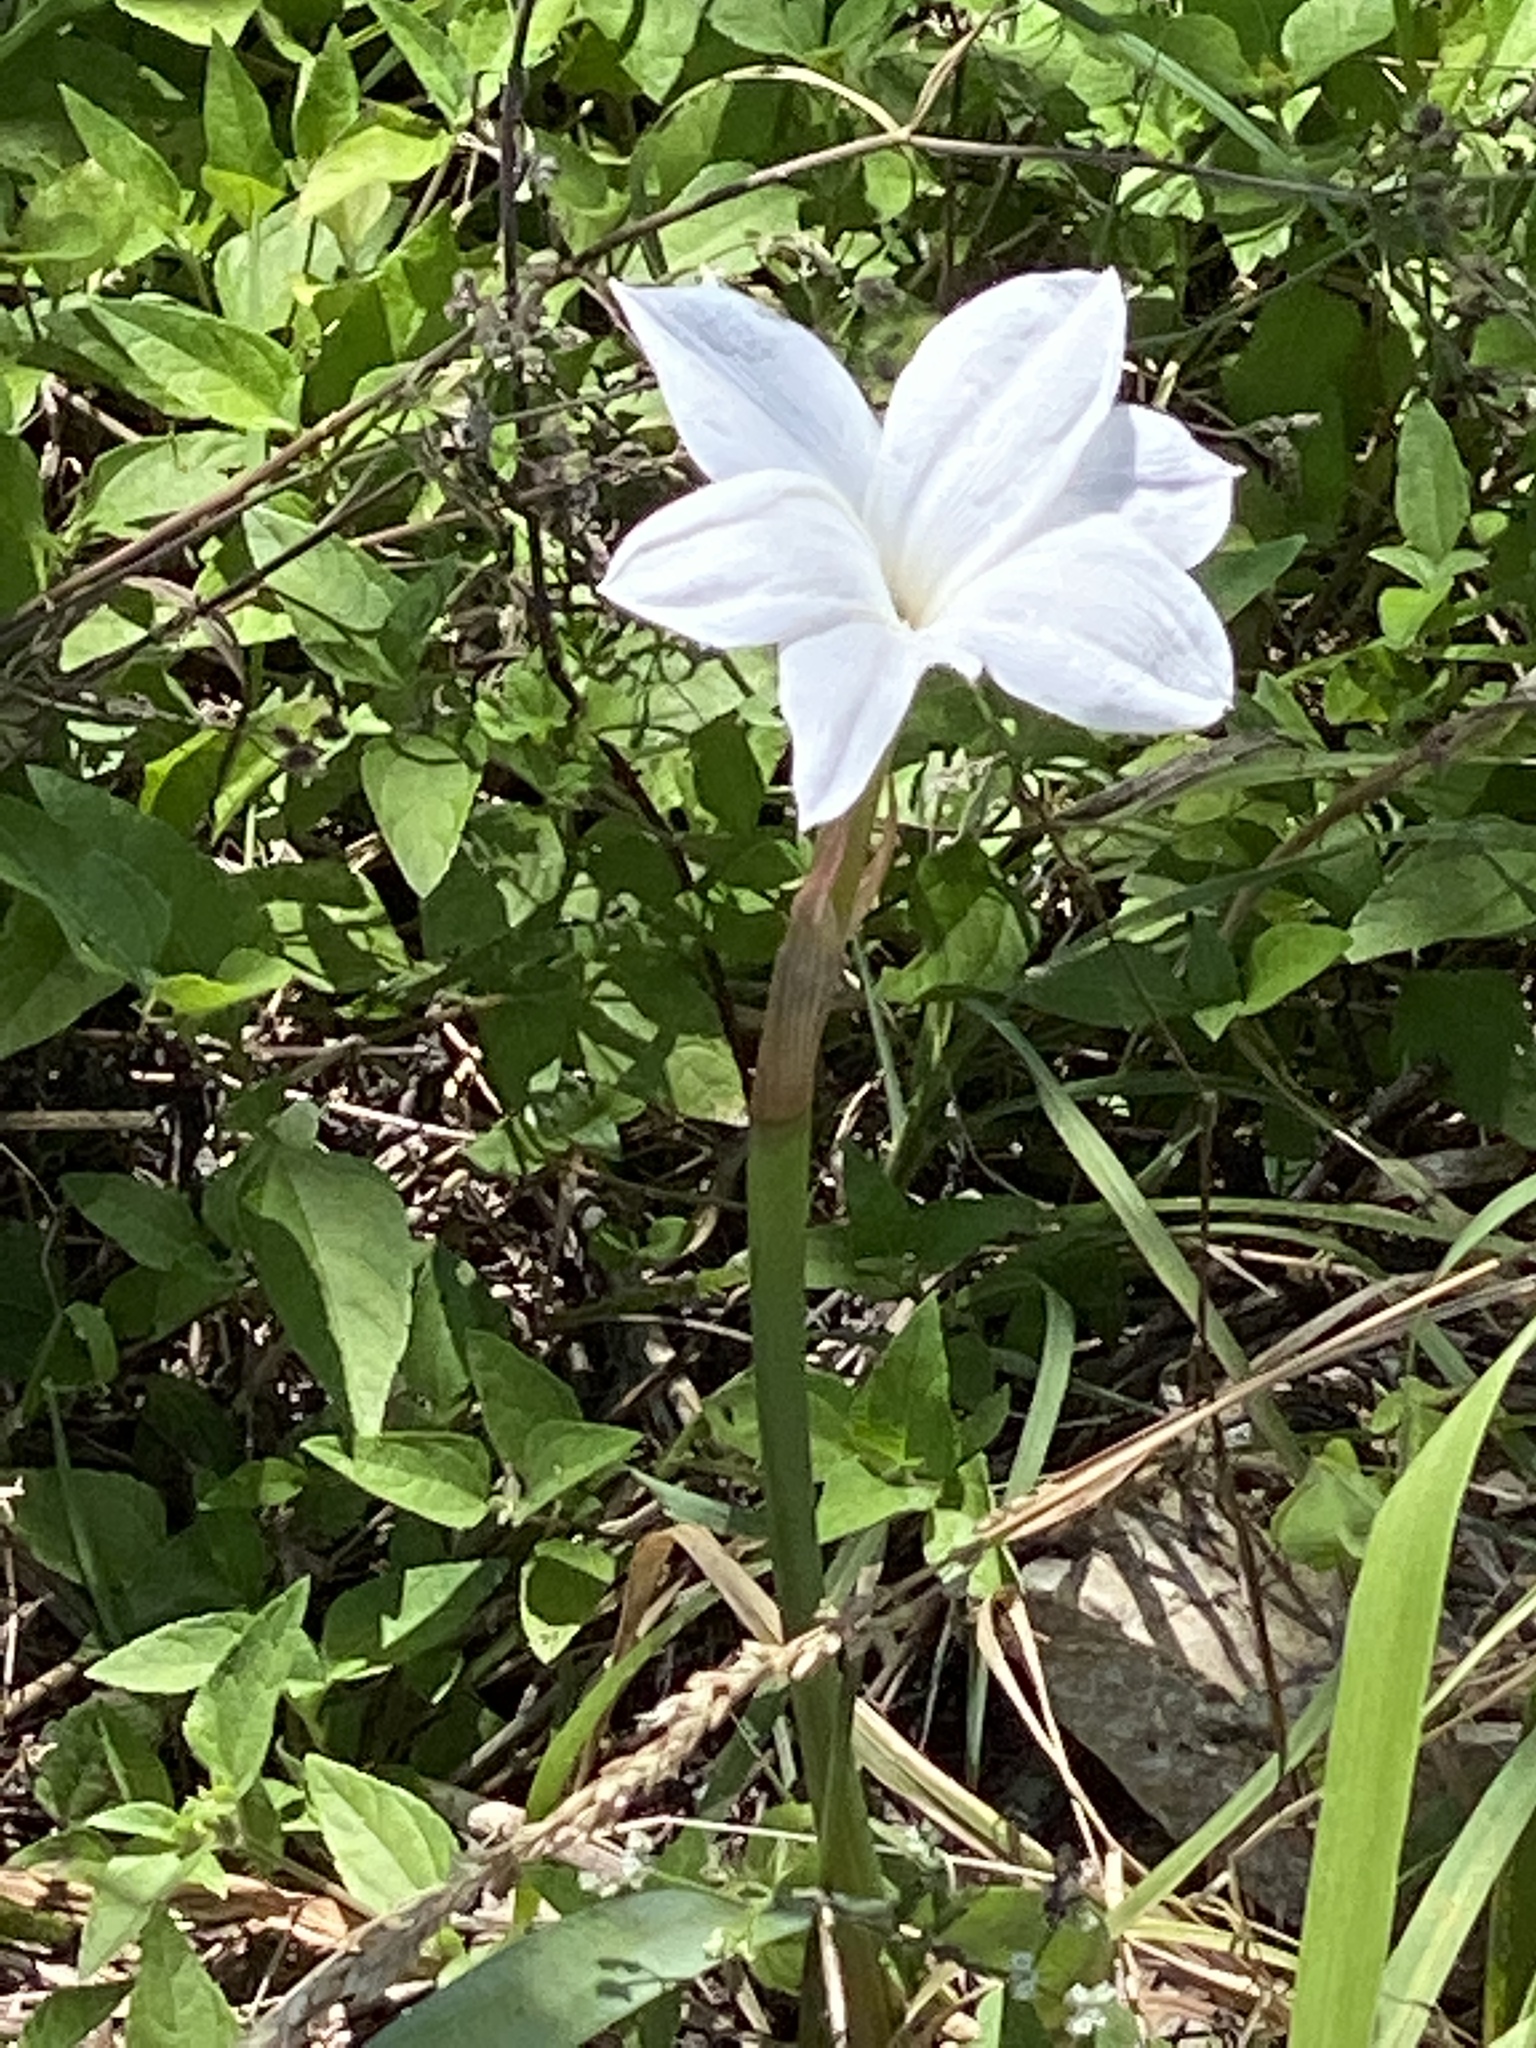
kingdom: Plantae
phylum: Tracheophyta
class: Liliopsida
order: Asparagales
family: Amaryllidaceae
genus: Zephyranthes
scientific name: Zephyranthes drummondii
